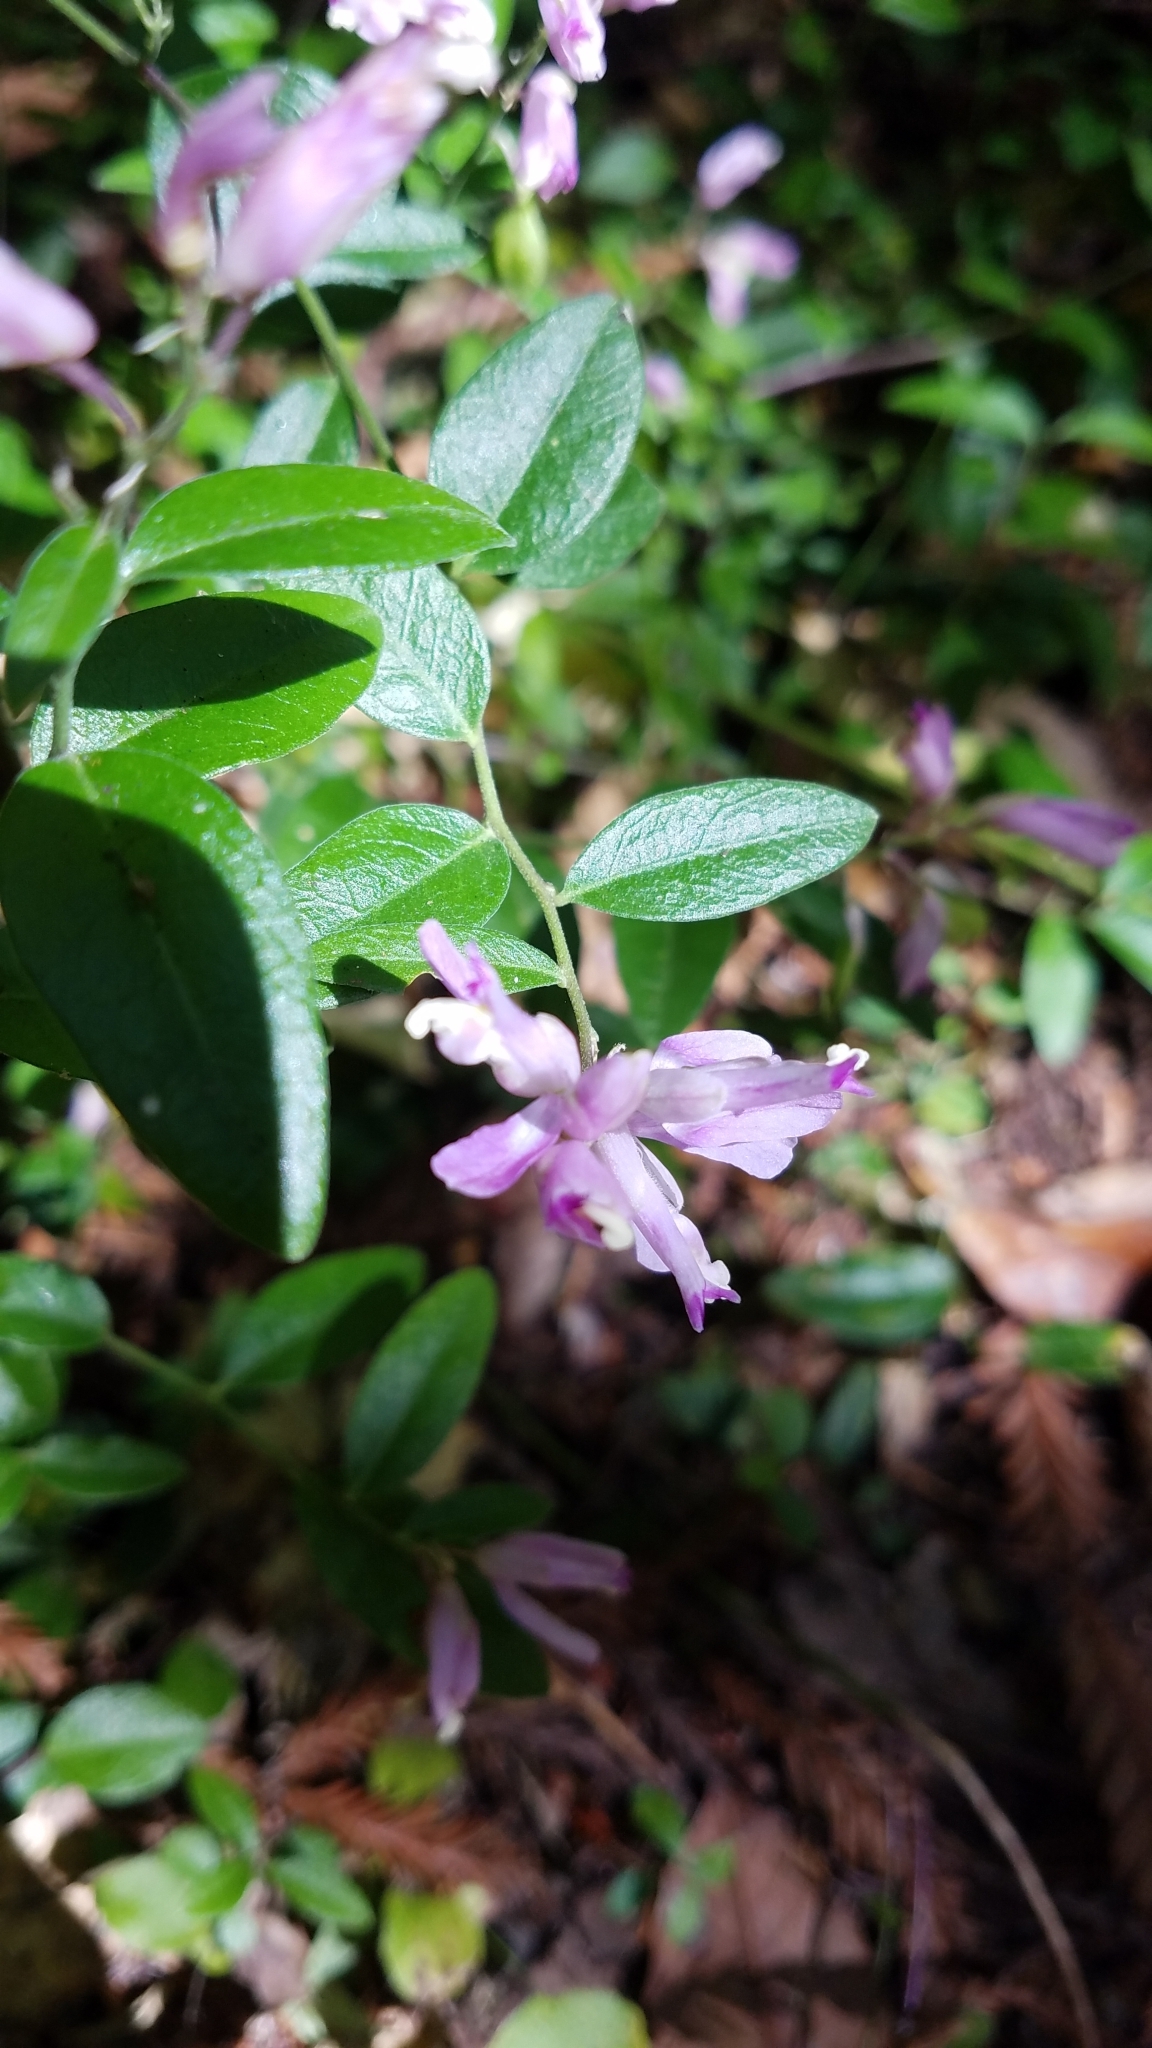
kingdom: Plantae
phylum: Tracheophyta
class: Magnoliopsida
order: Fabales
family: Polygalaceae
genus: Rhinotropis
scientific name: Rhinotropis californica
